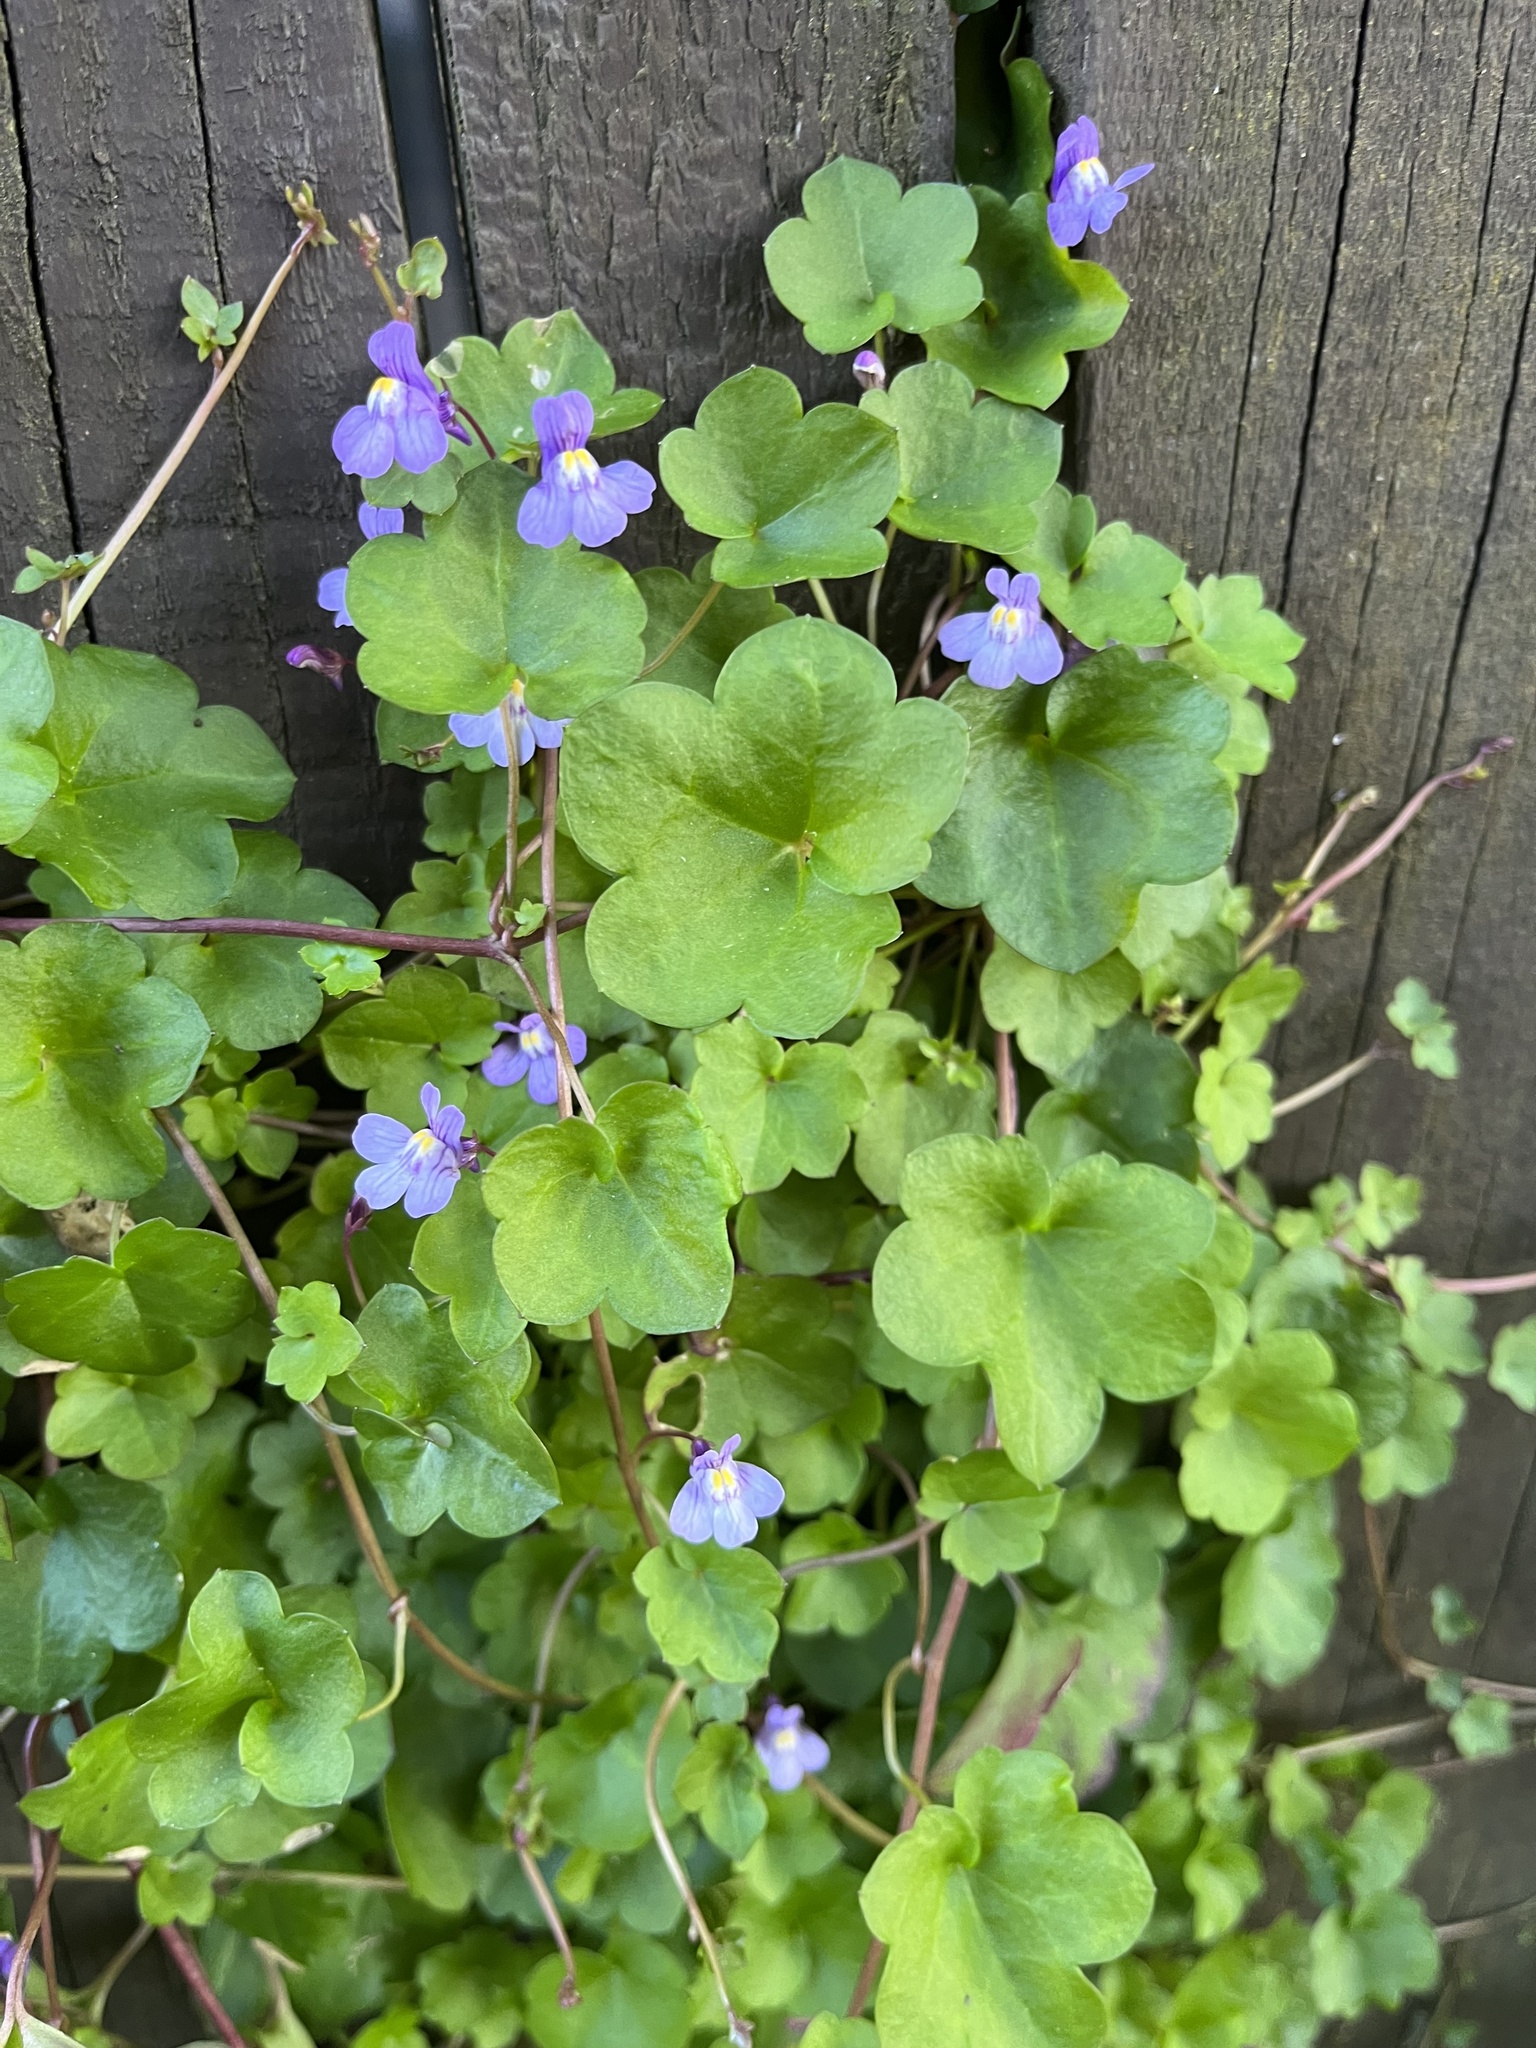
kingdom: Plantae
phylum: Tracheophyta
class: Magnoliopsida
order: Lamiales
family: Plantaginaceae
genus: Cymbalaria
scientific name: Cymbalaria muralis
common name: Ivy-leaved toadflax
